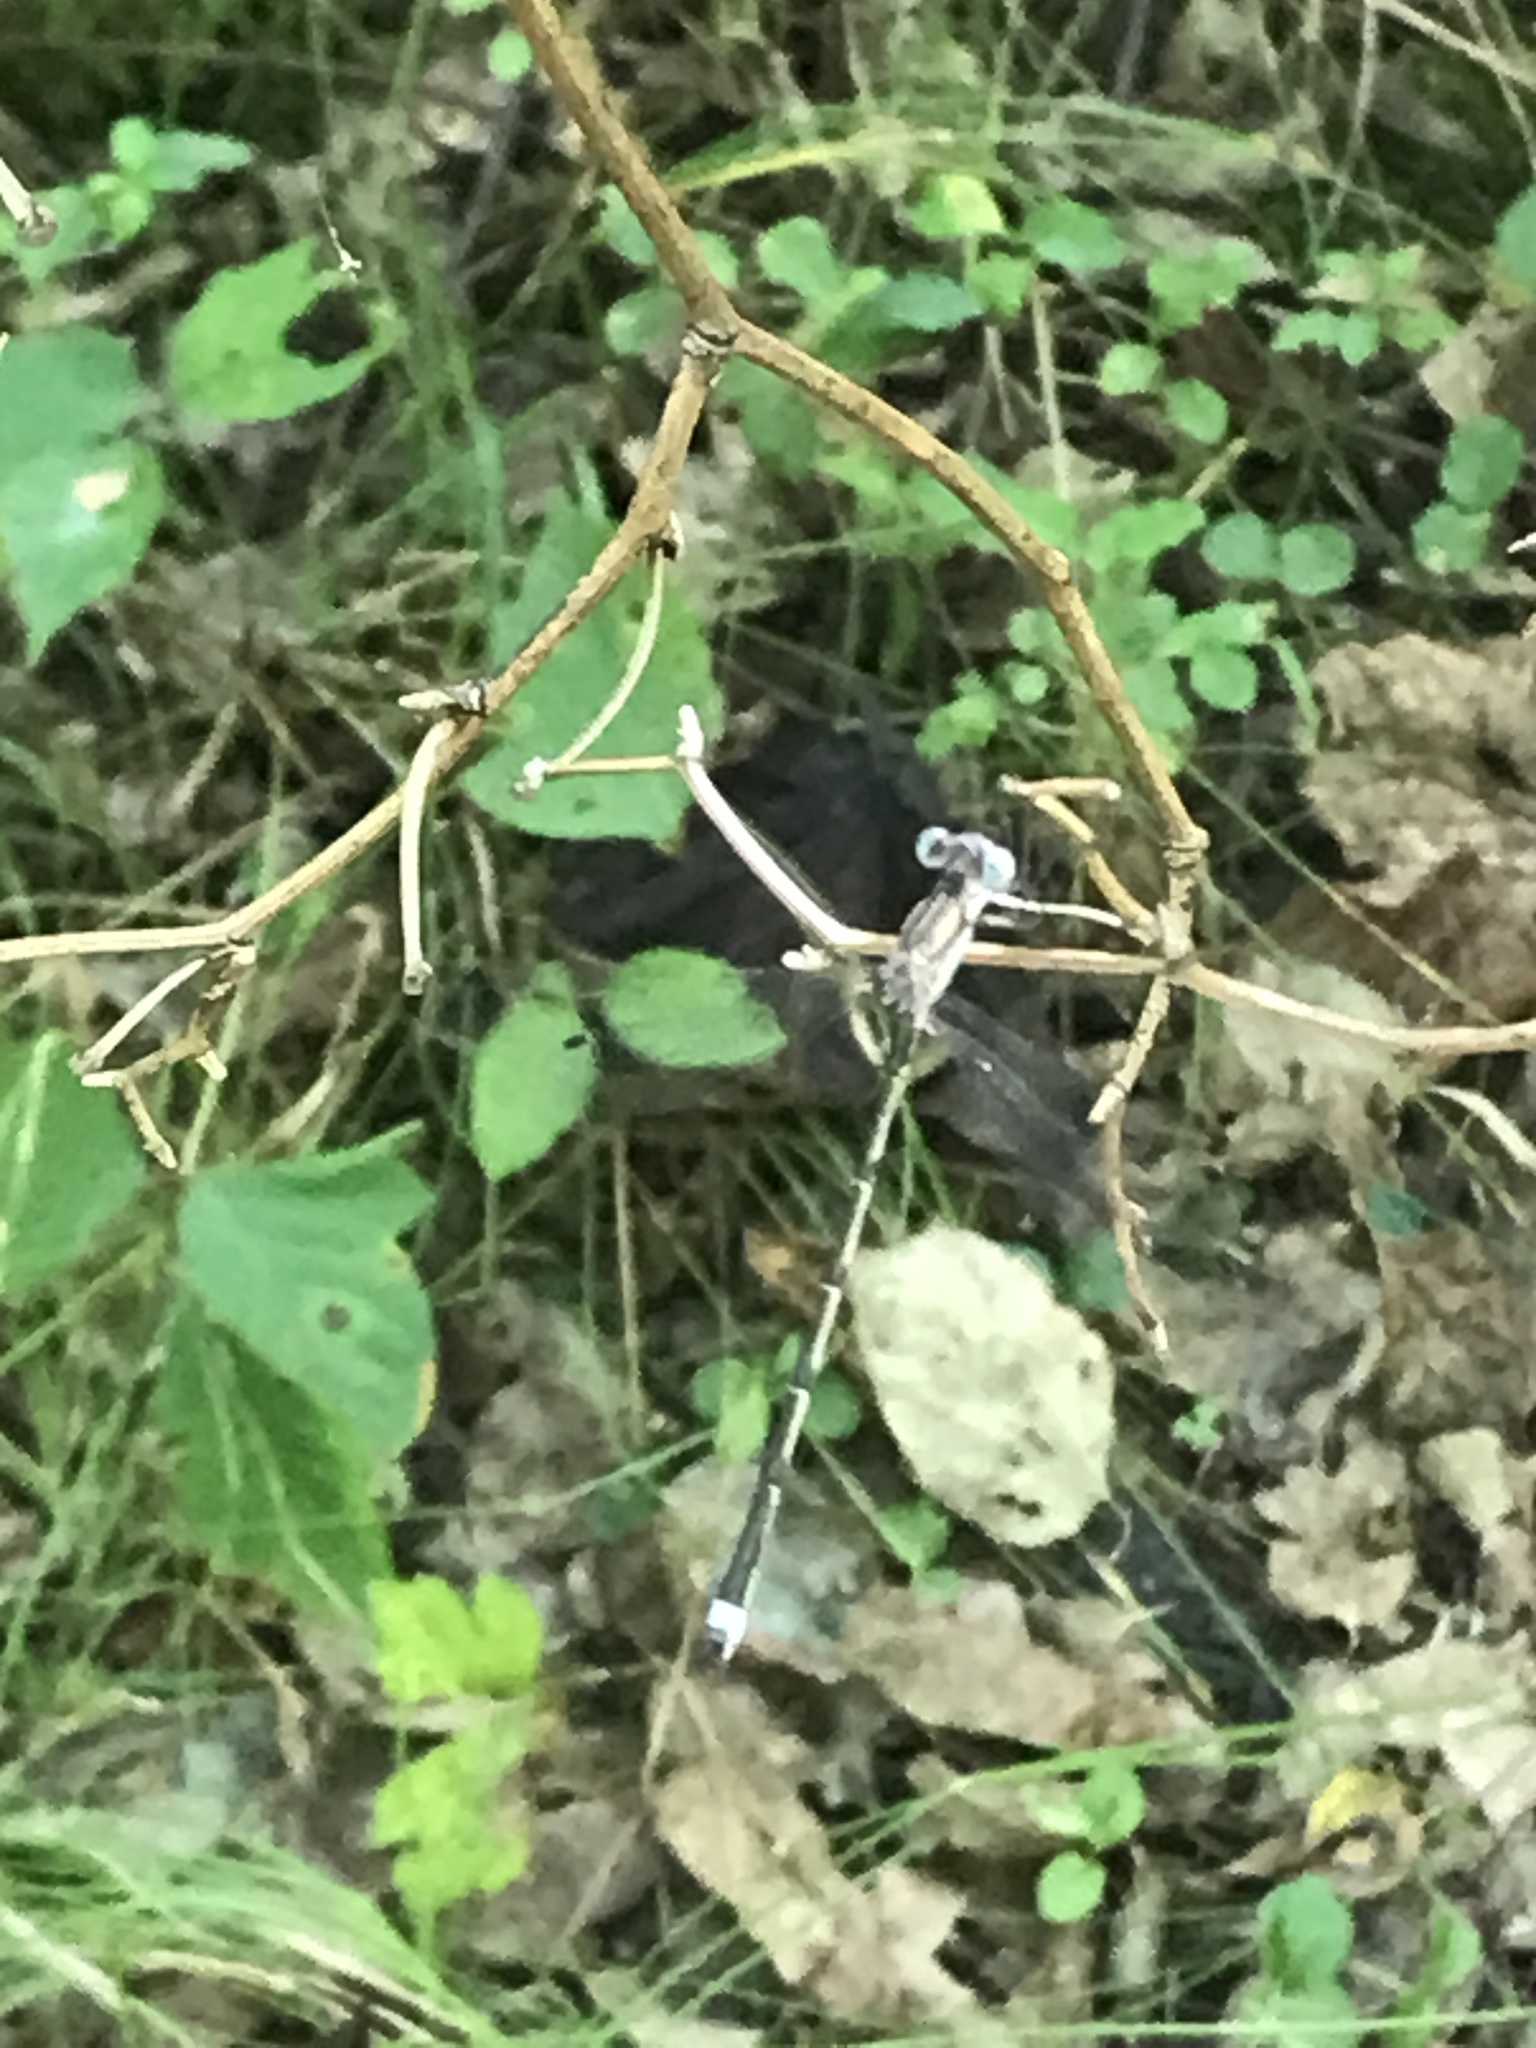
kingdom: Animalia
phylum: Arthropoda
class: Insecta
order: Odonata
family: Lestidae
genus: Lestes
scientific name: Lestes australis
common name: Southern spreadwing
